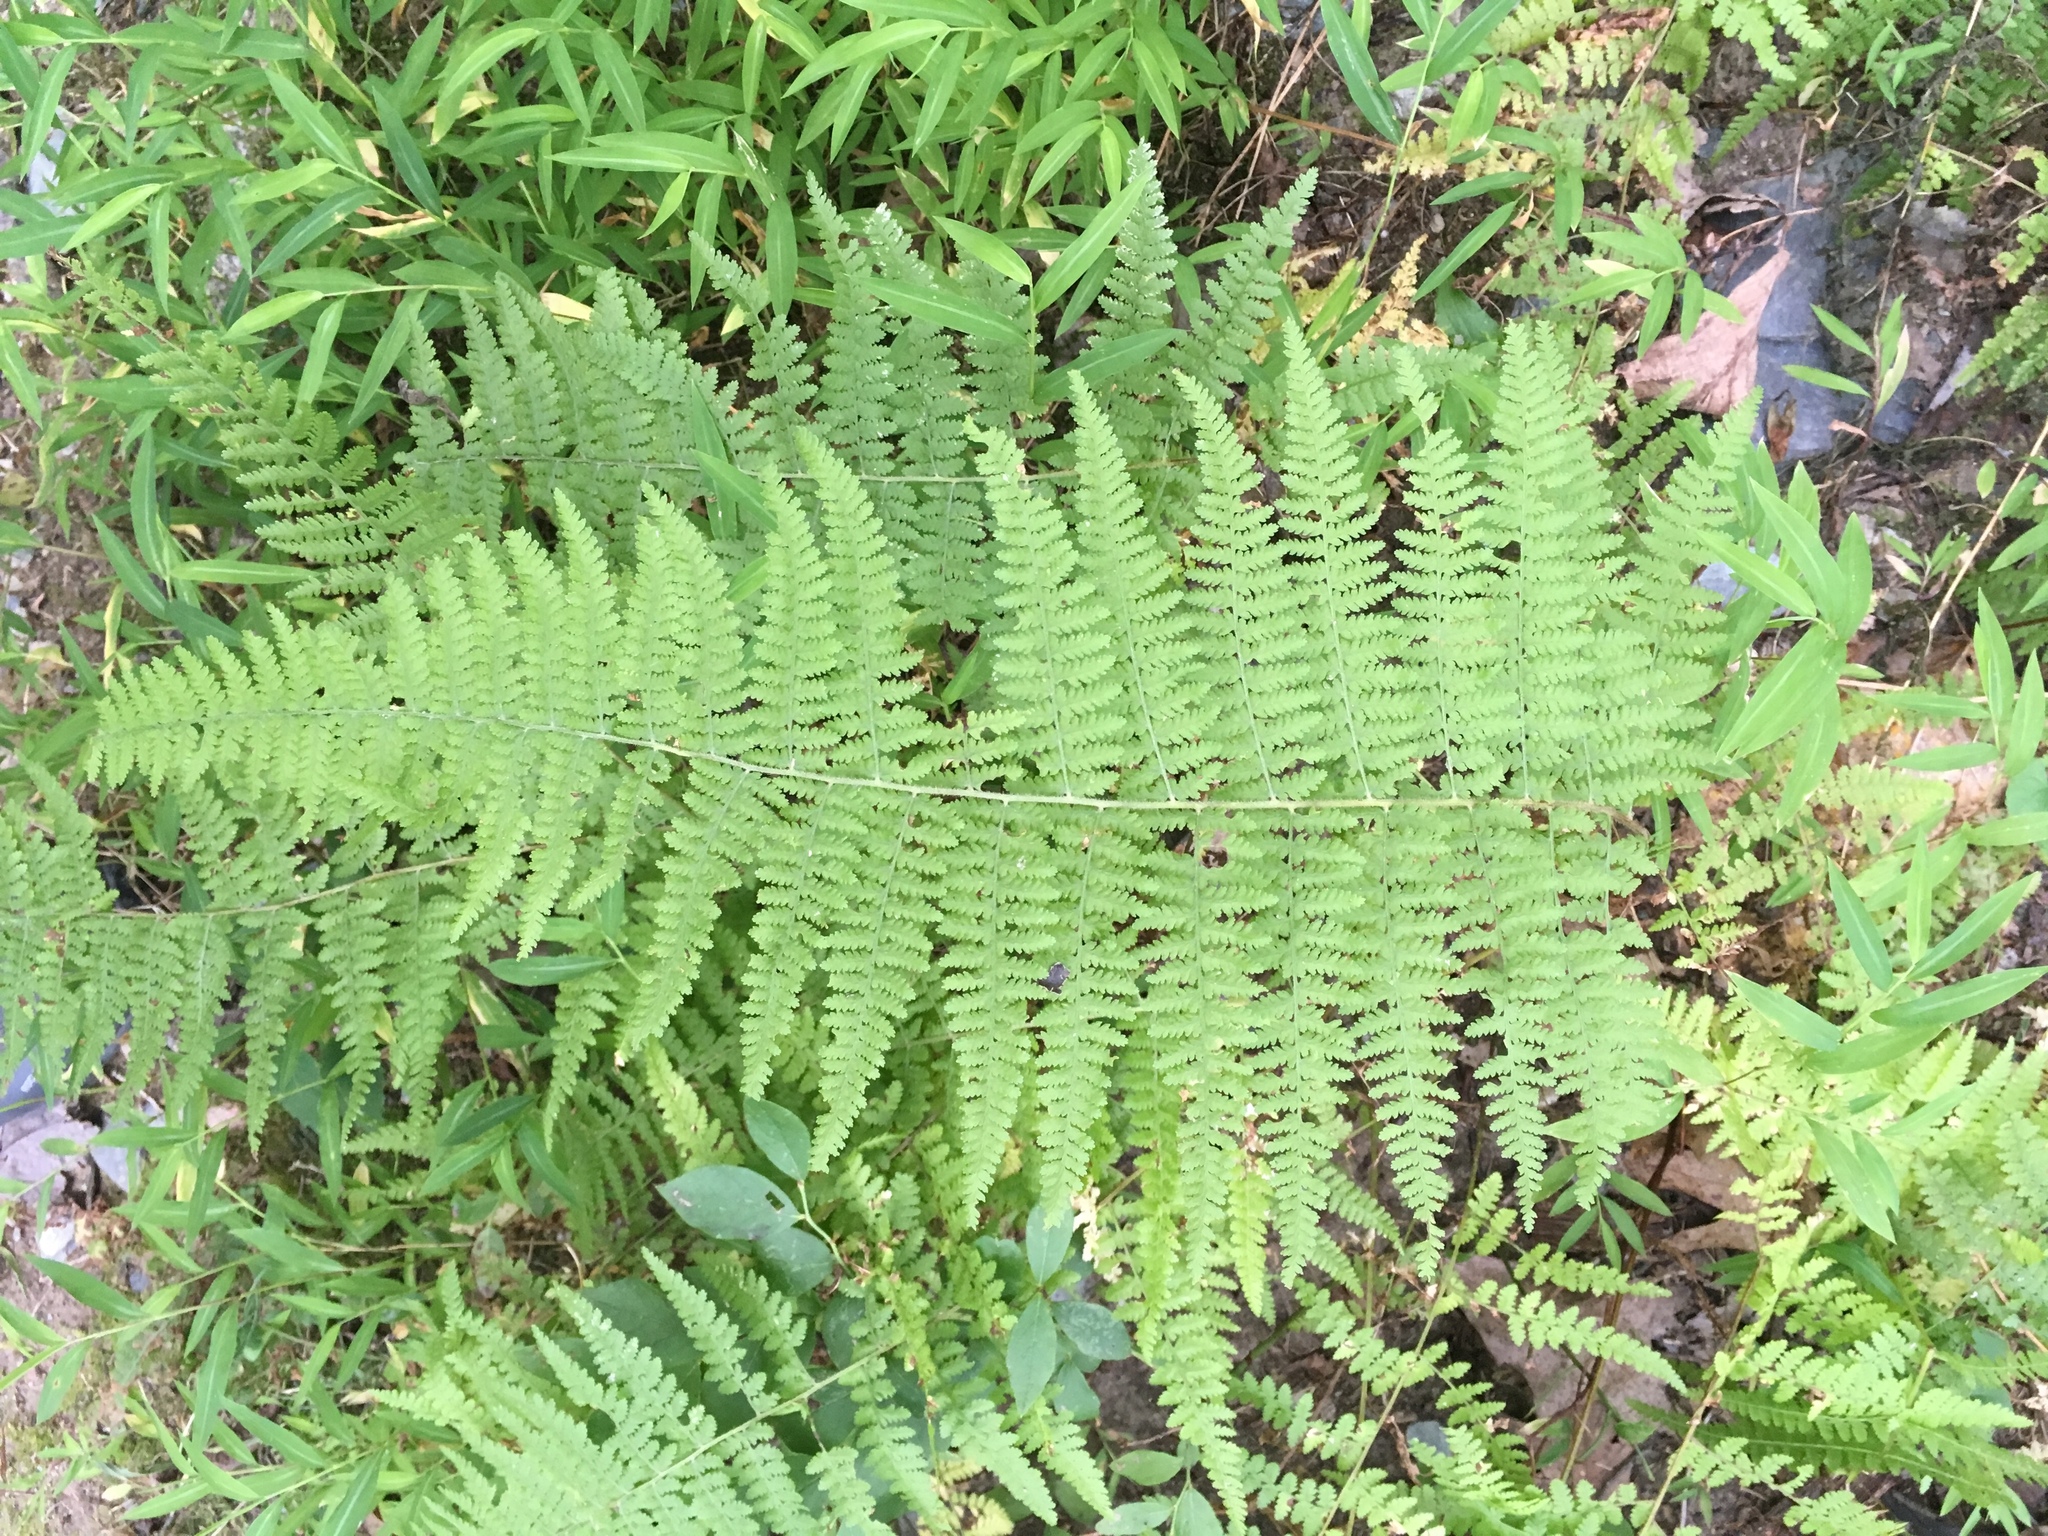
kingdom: Plantae
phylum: Tracheophyta
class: Polypodiopsida
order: Polypodiales
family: Dennstaedtiaceae
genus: Sitobolium
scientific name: Sitobolium punctilobum
